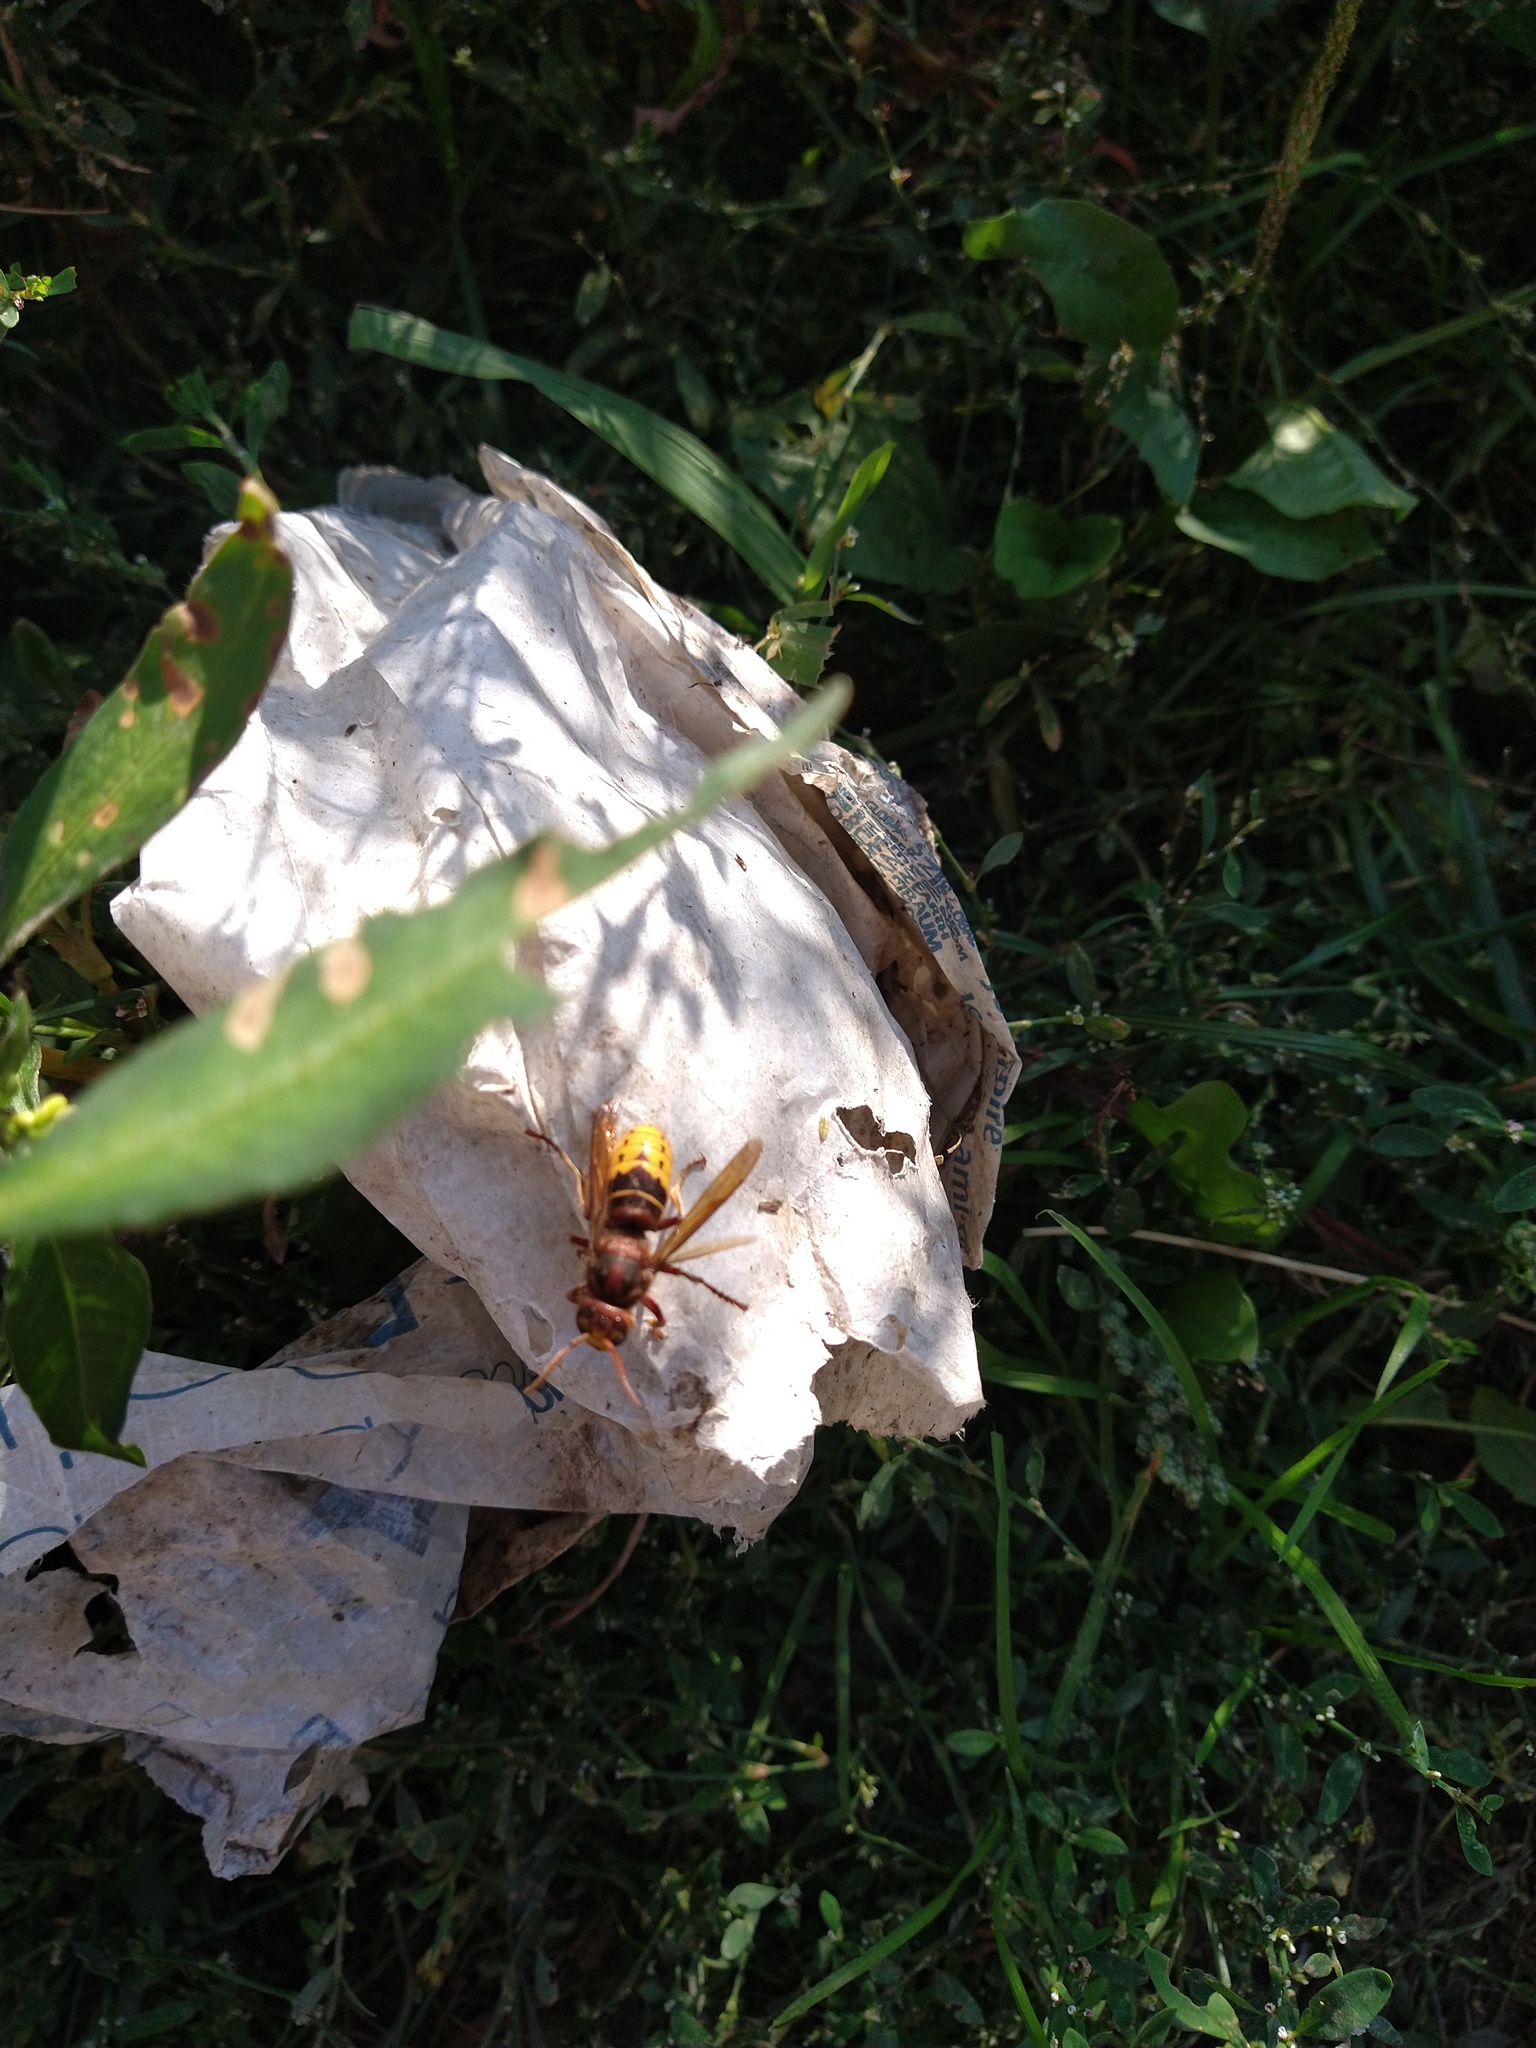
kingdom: Animalia
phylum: Arthropoda
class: Insecta
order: Hymenoptera
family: Vespidae
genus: Vespa
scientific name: Vespa crabro
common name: Hornet
